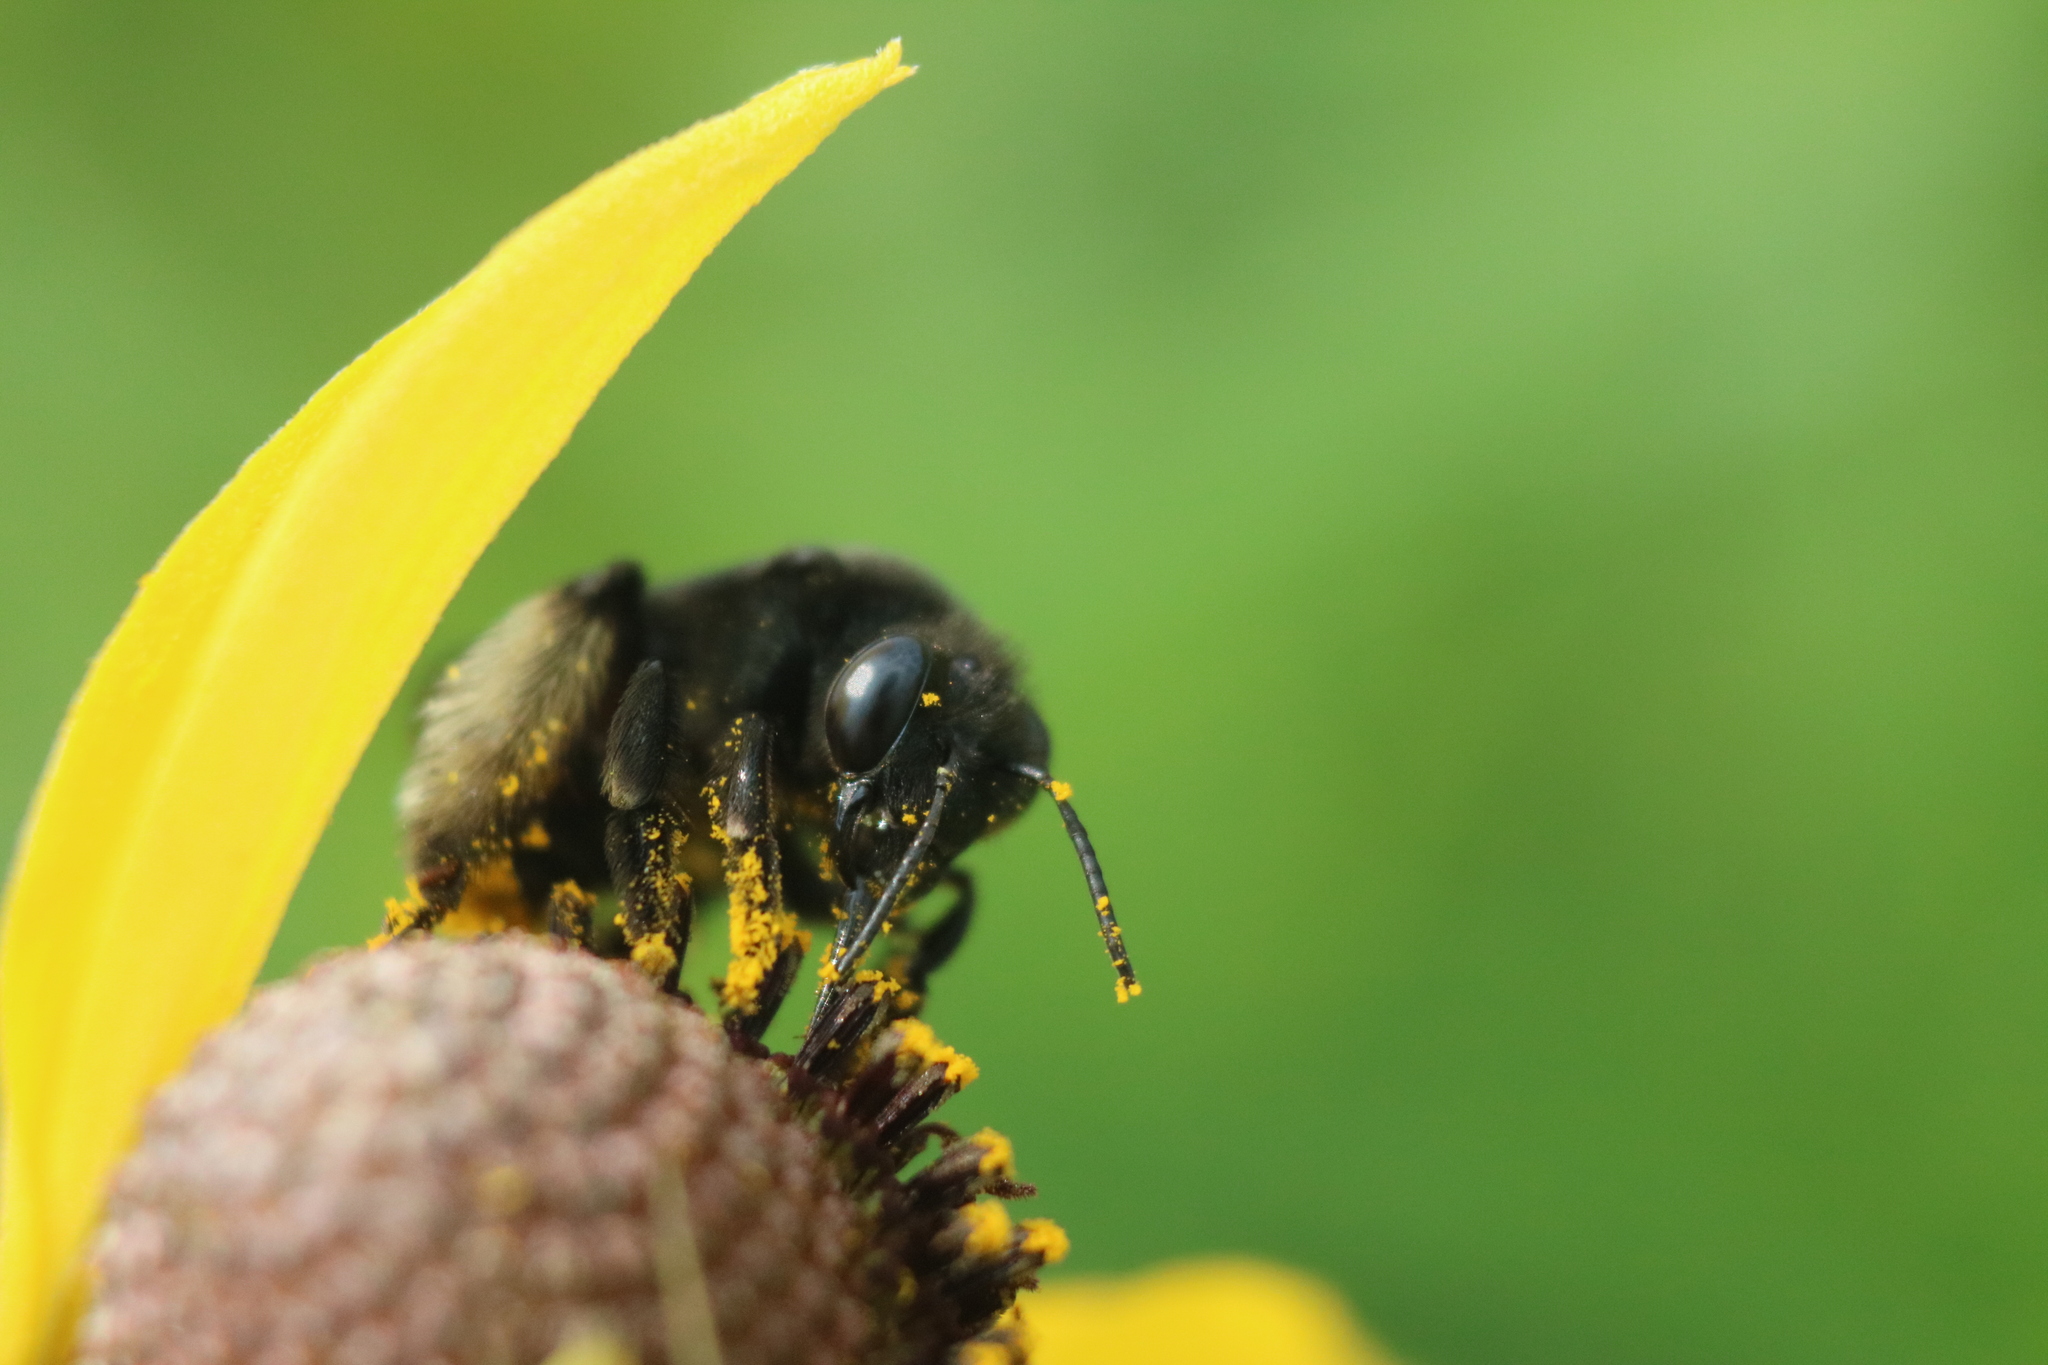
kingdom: Animalia
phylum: Arthropoda
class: Insecta
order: Hymenoptera
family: Apidae
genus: Melissodes
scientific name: Melissodes bimaculatus
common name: Two-spotted long-horned bee
